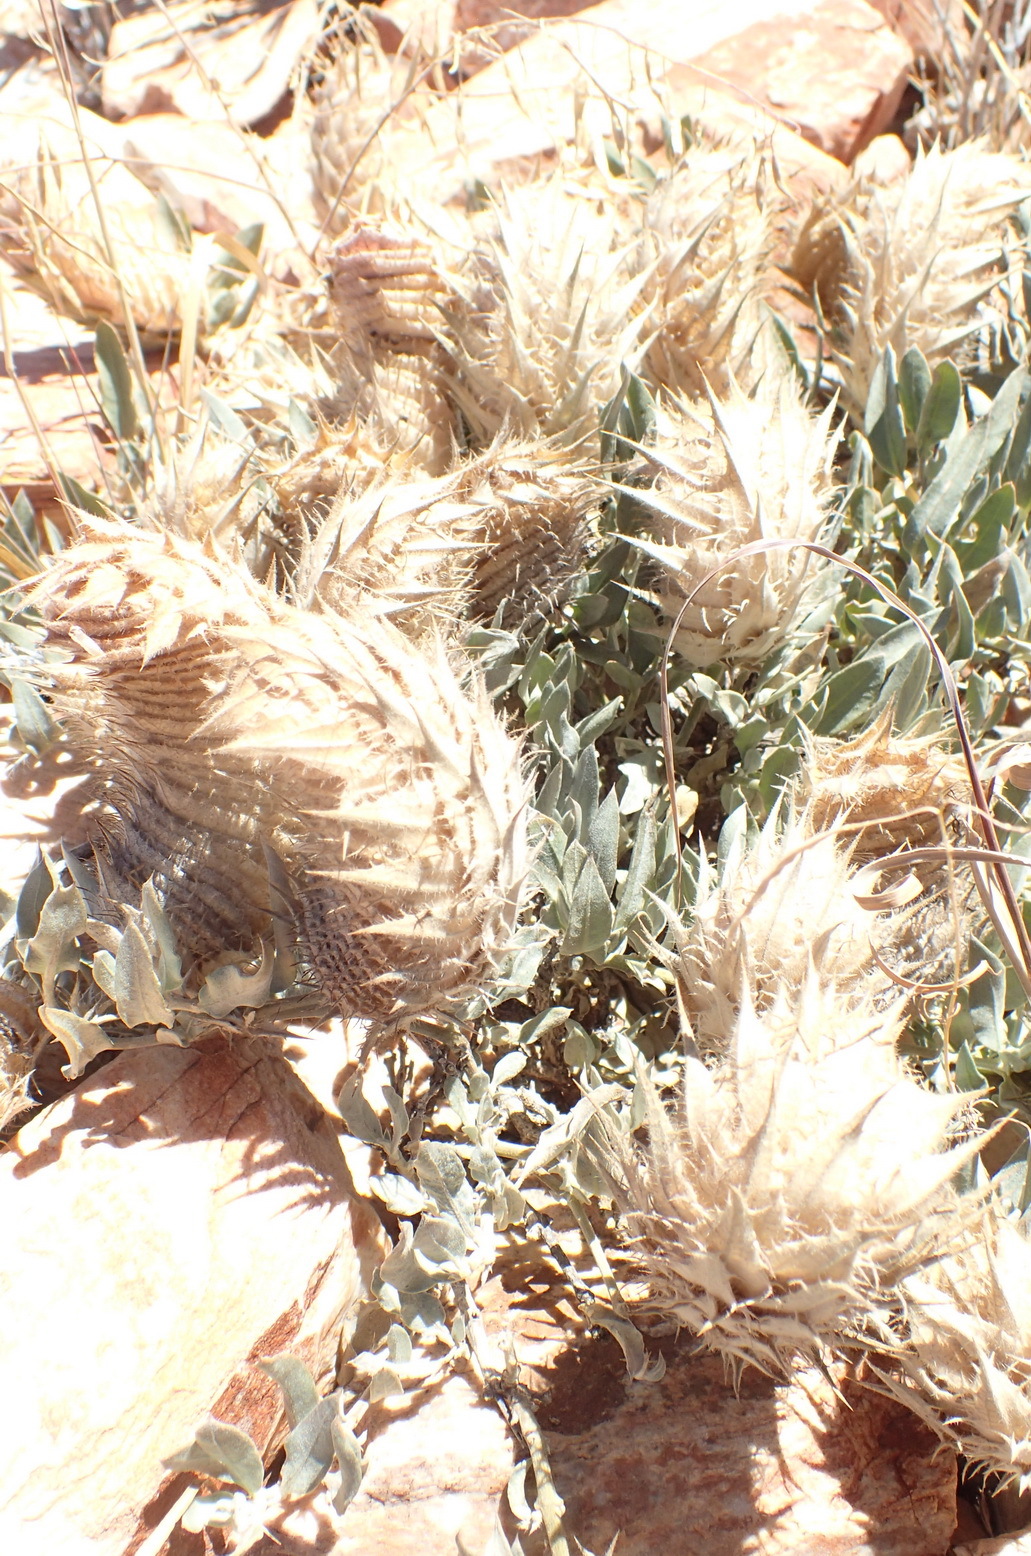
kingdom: Plantae
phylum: Tracheophyta
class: Magnoliopsida
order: Lamiales
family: Acanthaceae
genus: Barleria
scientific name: Barleria lichtensteiniana
